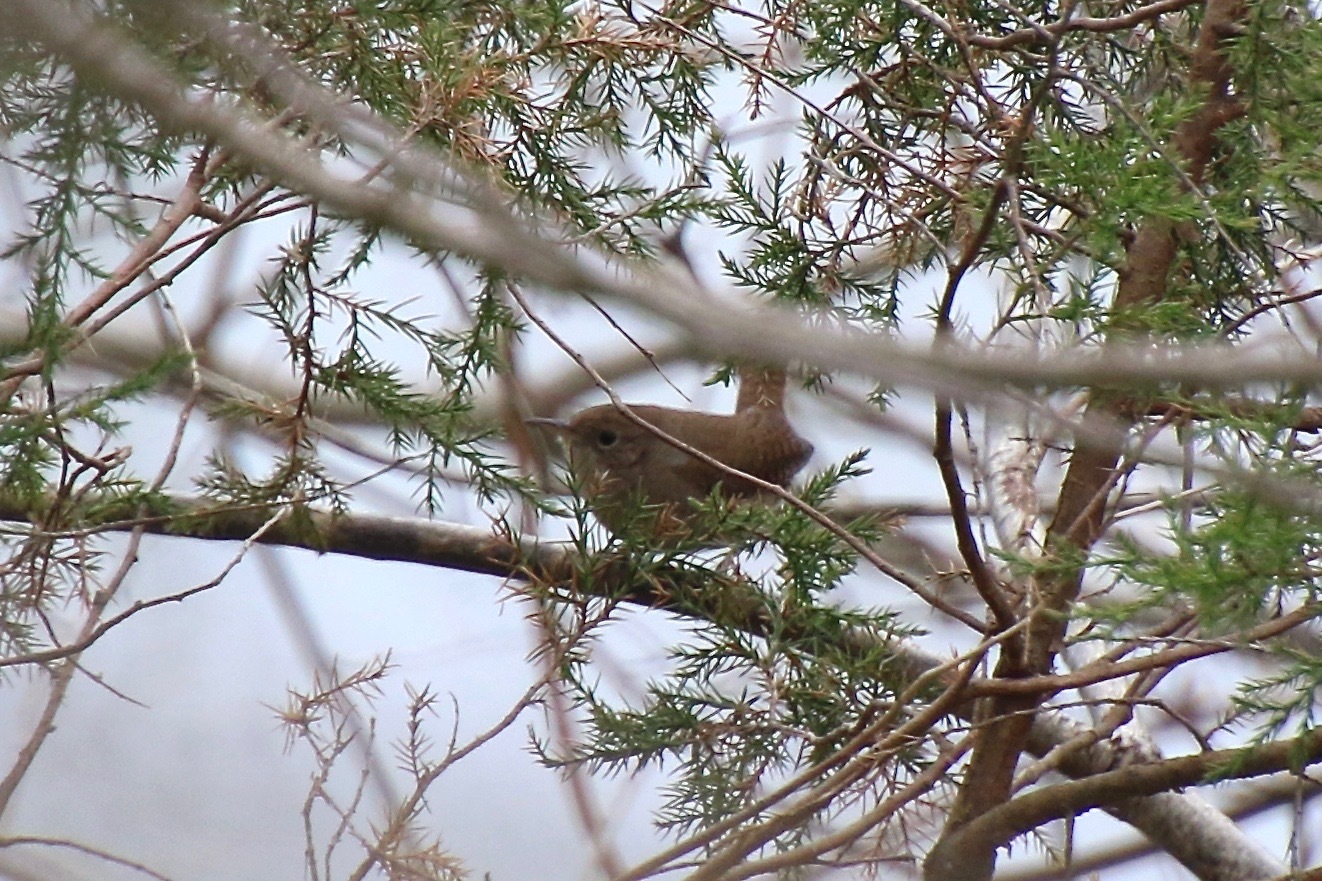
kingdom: Animalia
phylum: Chordata
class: Aves
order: Passeriformes
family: Troglodytidae
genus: Troglodytes
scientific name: Troglodytes aedon
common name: House wren
